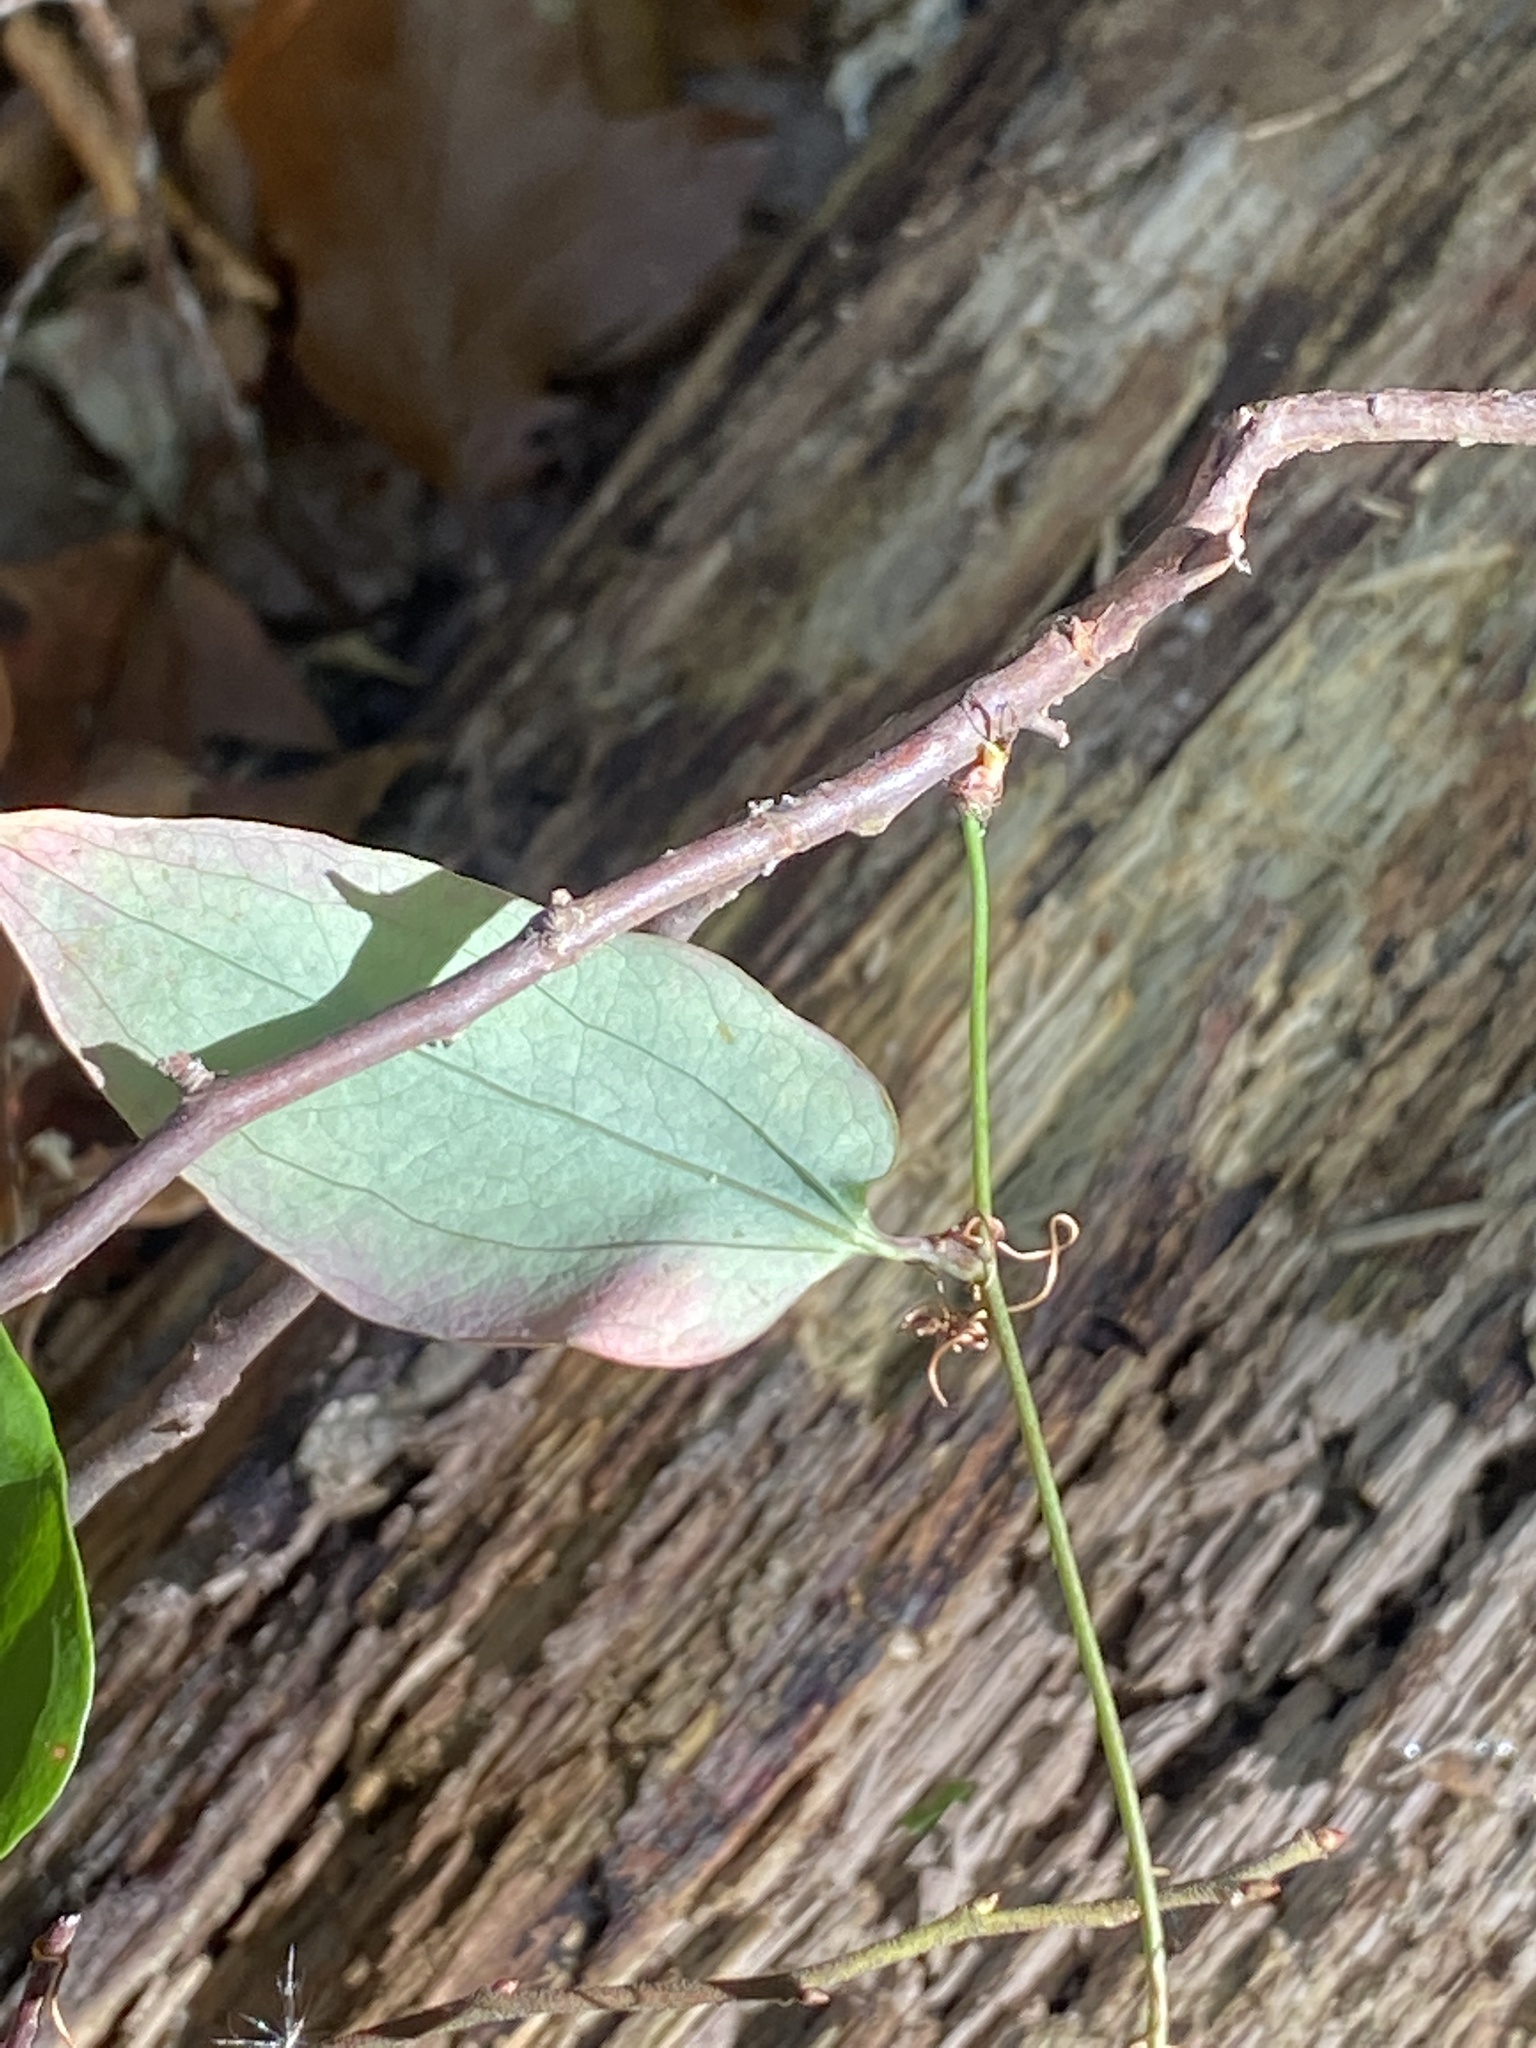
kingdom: Plantae
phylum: Tracheophyta
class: Liliopsida
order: Liliales
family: Smilacaceae
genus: Smilax
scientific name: Smilax glauca
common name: Cat greenbrier
